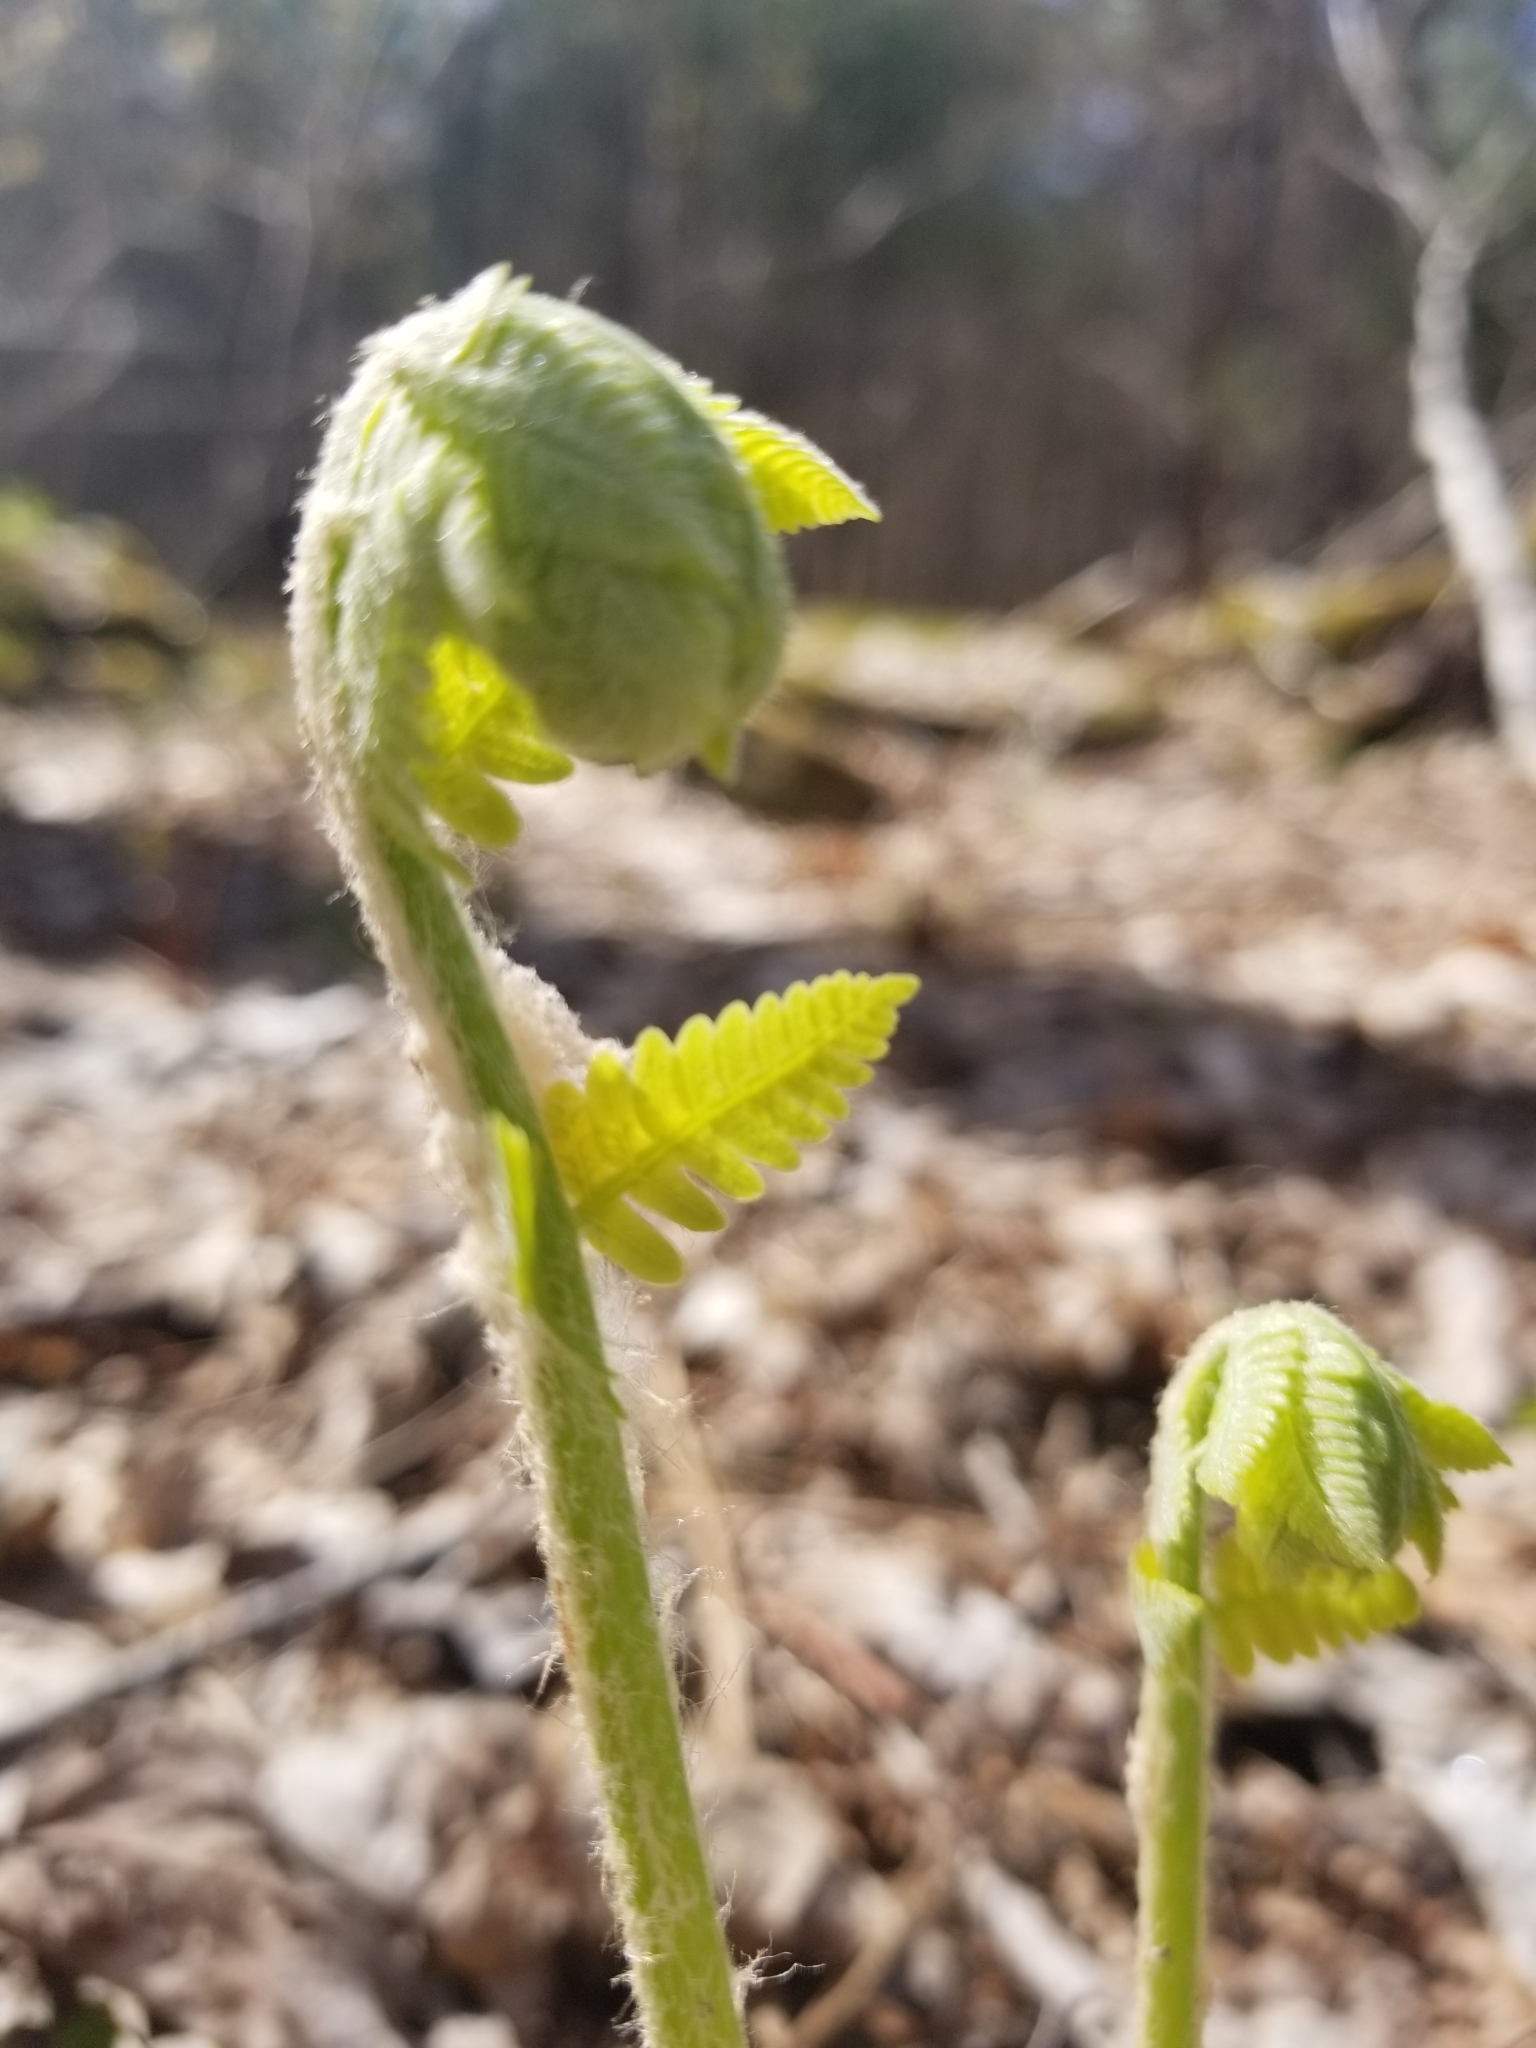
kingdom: Plantae
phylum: Tracheophyta
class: Polypodiopsida
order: Osmundales
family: Osmundaceae
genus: Claytosmunda
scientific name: Claytosmunda claytoniana
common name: Clayton's fern
